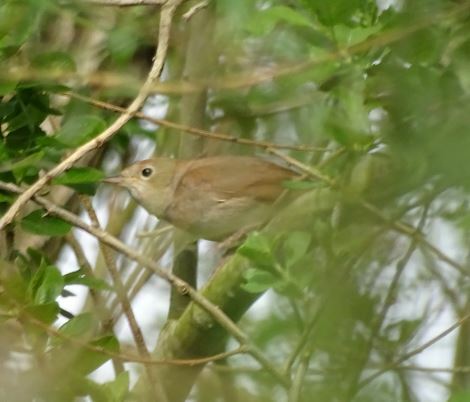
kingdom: Animalia
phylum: Chordata
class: Aves
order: Passeriformes
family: Muscicapidae
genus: Luscinia
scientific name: Luscinia megarhynchos
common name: Common nightingale
